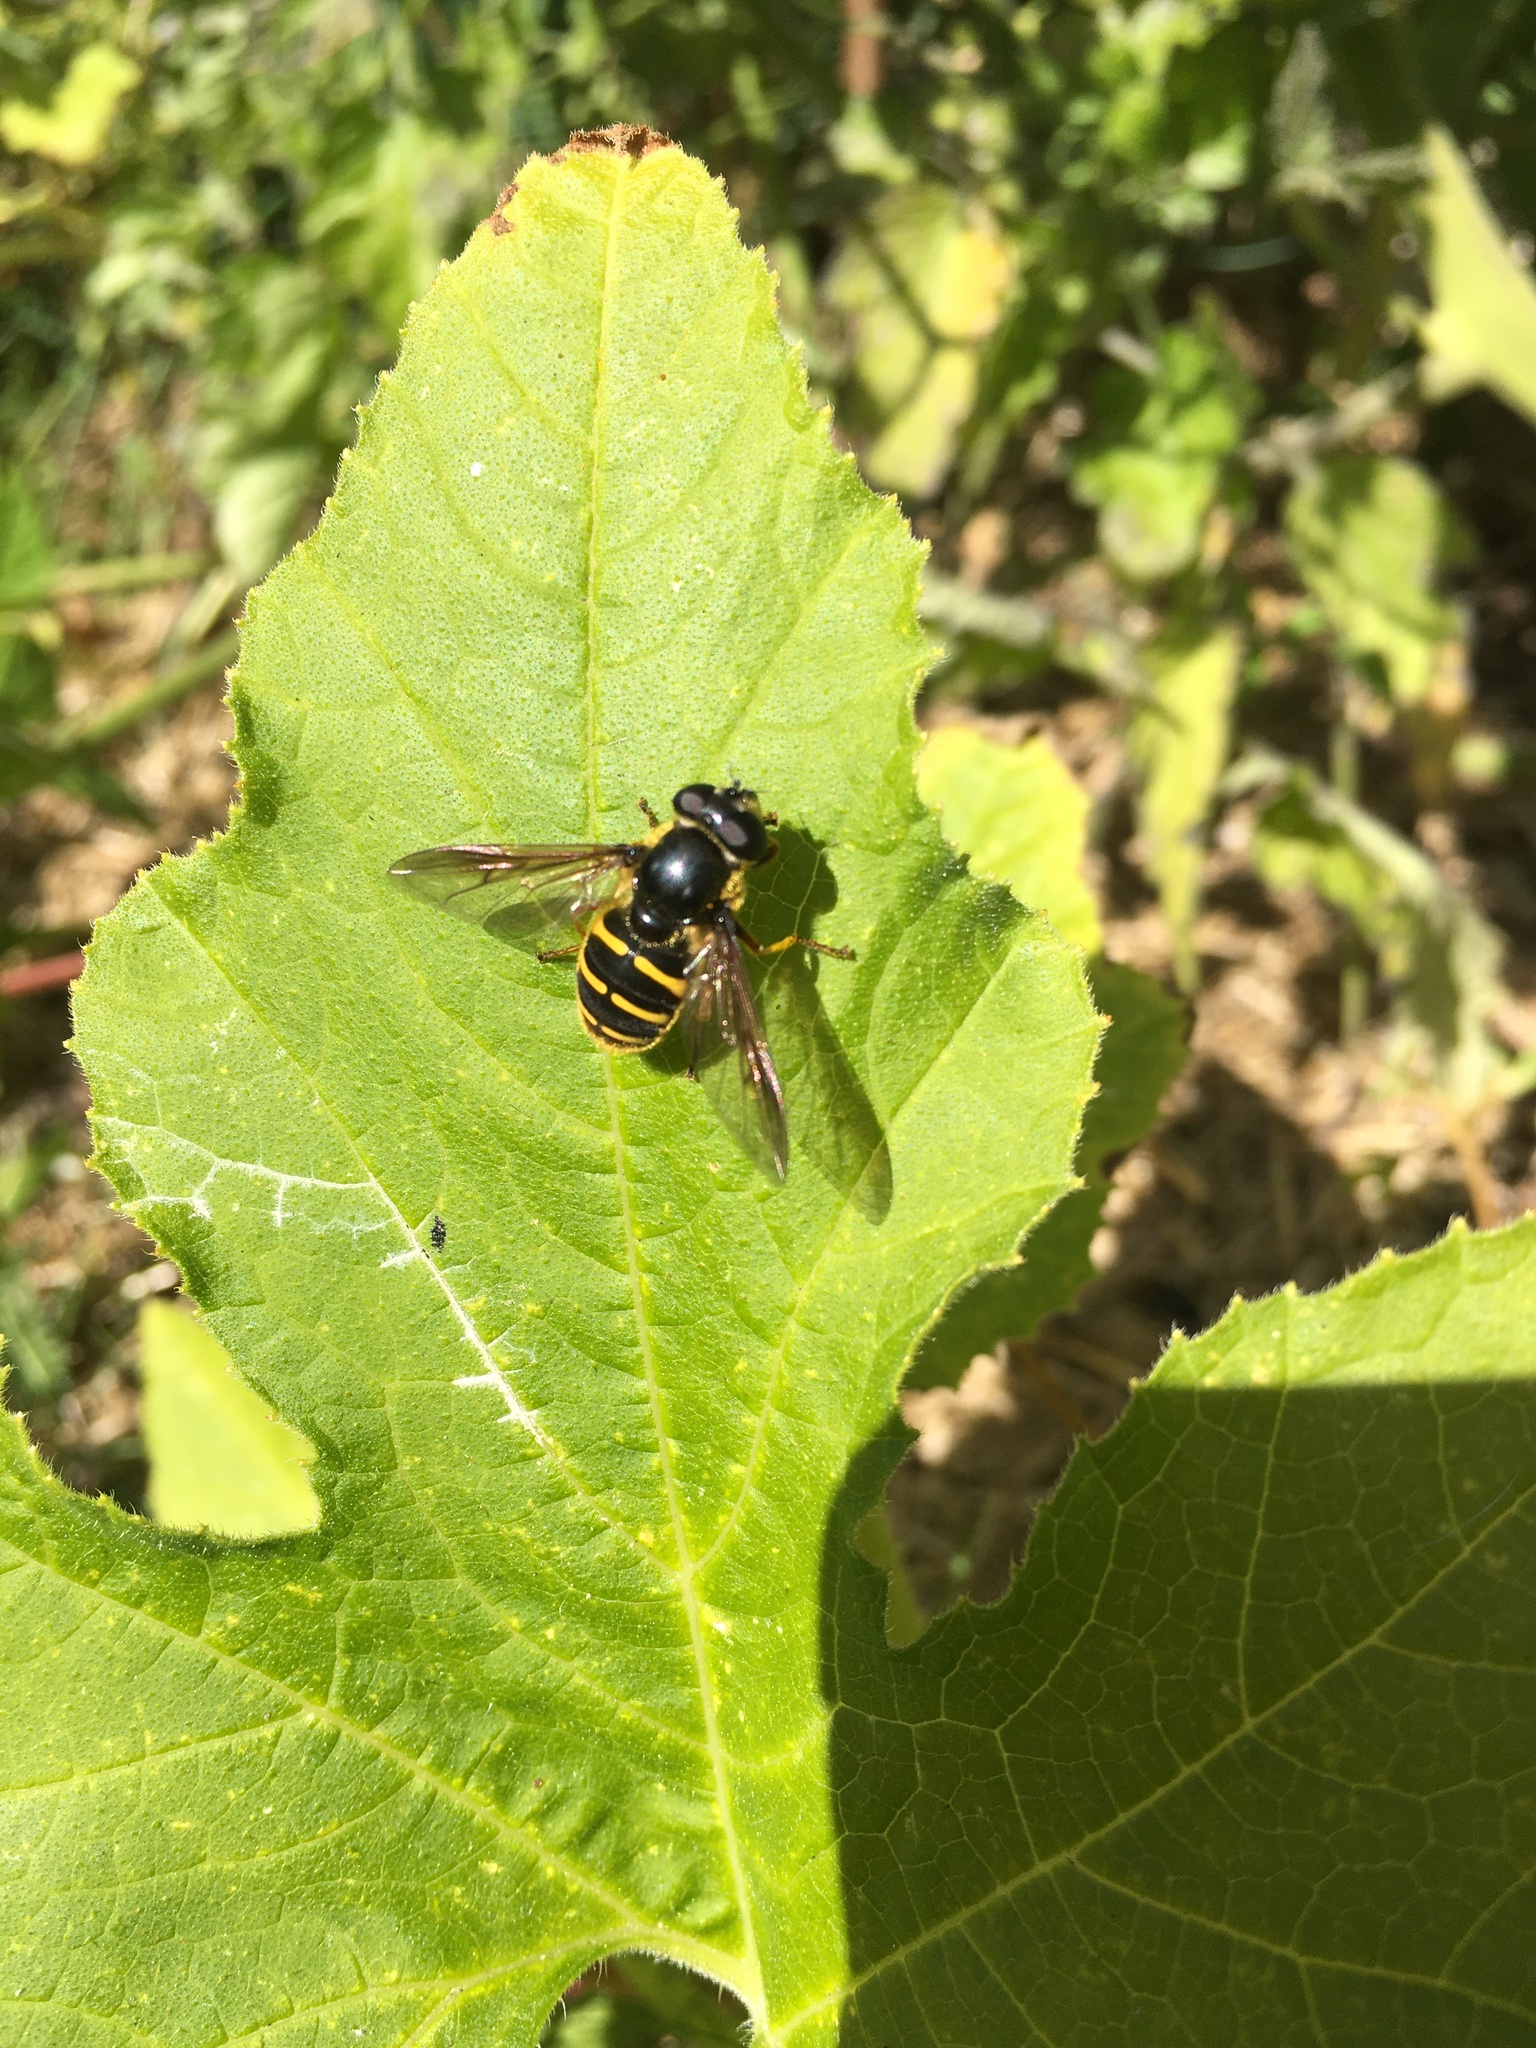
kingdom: Animalia
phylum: Arthropoda
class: Insecta
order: Diptera
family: Syrphidae
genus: Sericomyia
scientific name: Sericomyia chalcopyga
